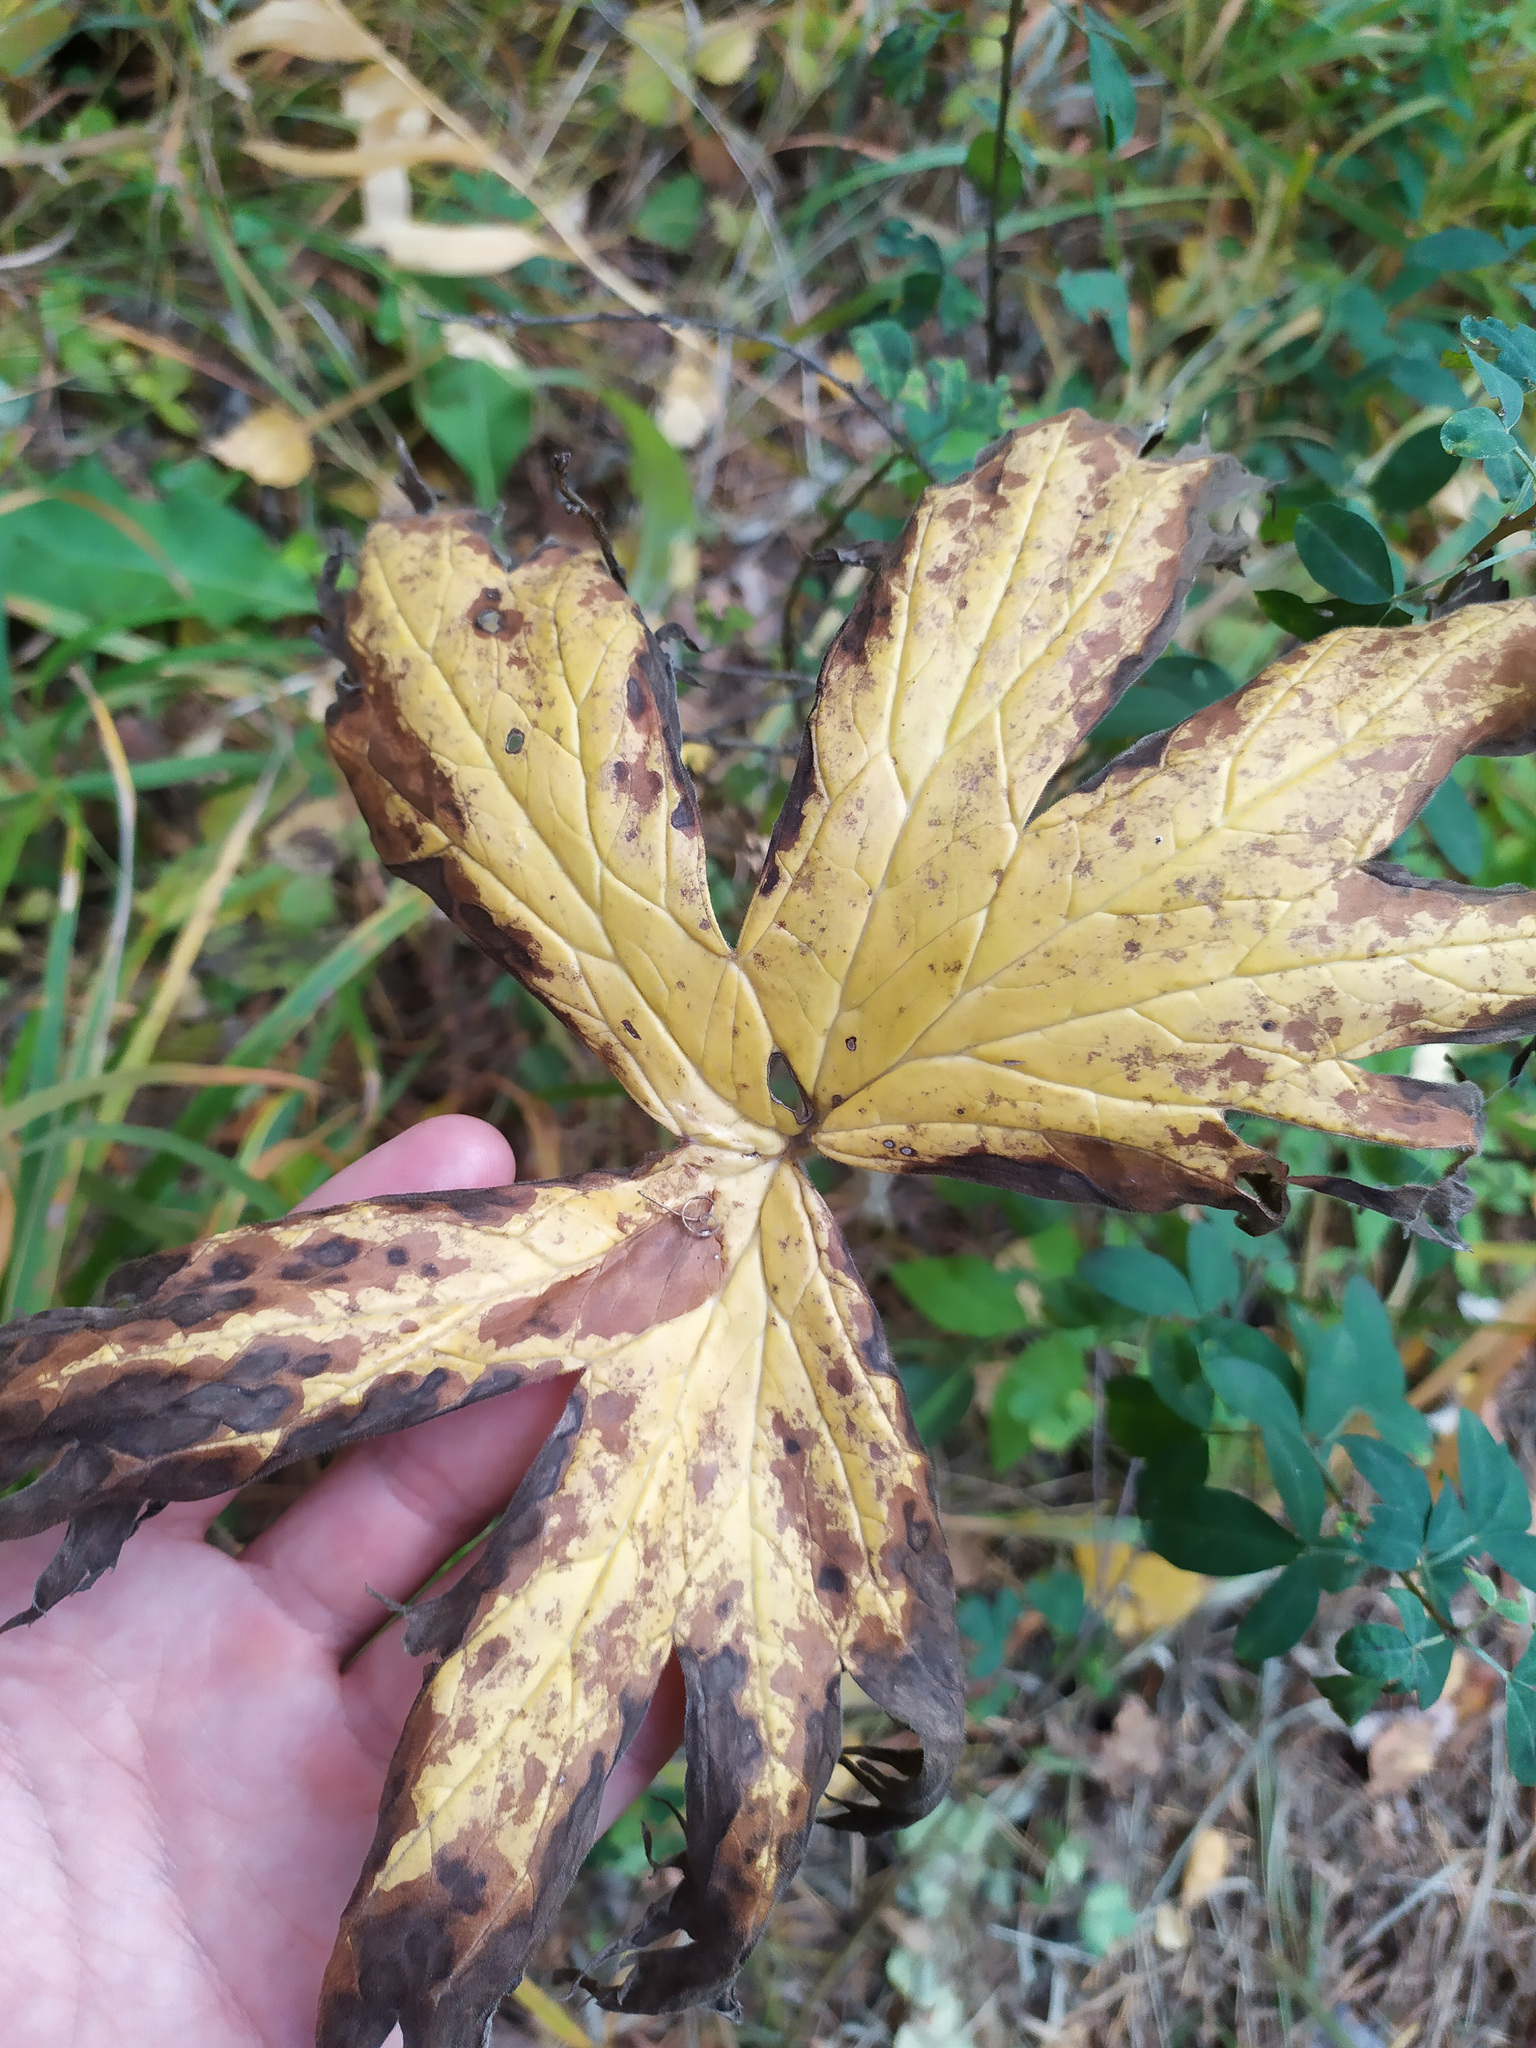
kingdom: Plantae
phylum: Tracheophyta
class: Magnoliopsida
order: Ranunculales
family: Ranunculaceae
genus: Aconitum
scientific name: Aconitum septentrionale
